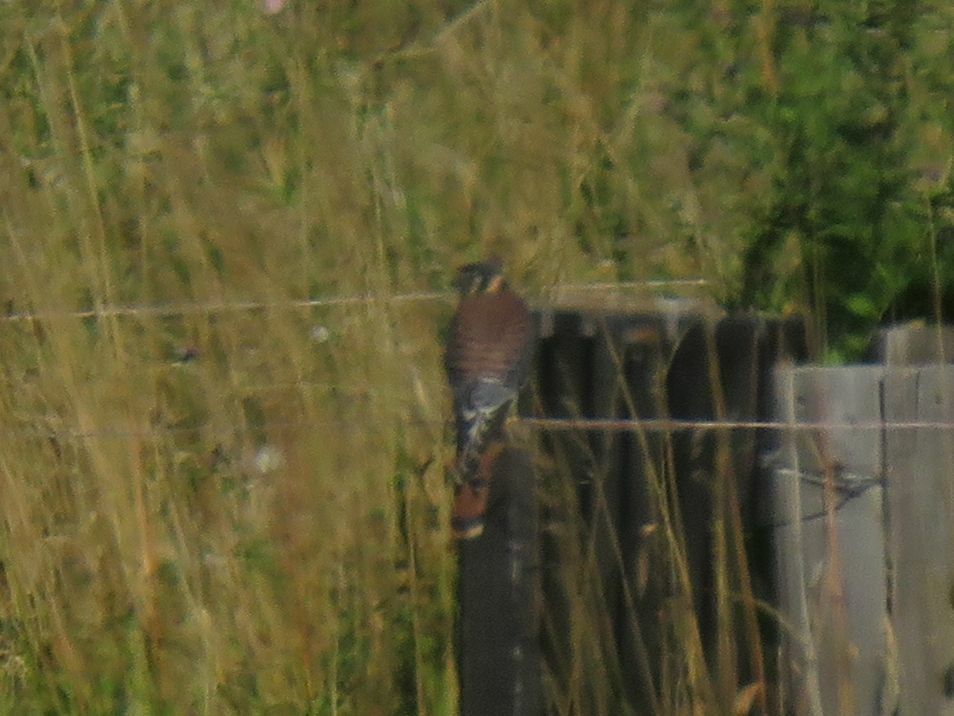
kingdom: Animalia
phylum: Chordata
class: Aves
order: Falconiformes
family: Falconidae
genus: Falco
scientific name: Falco sparverius
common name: American kestrel
